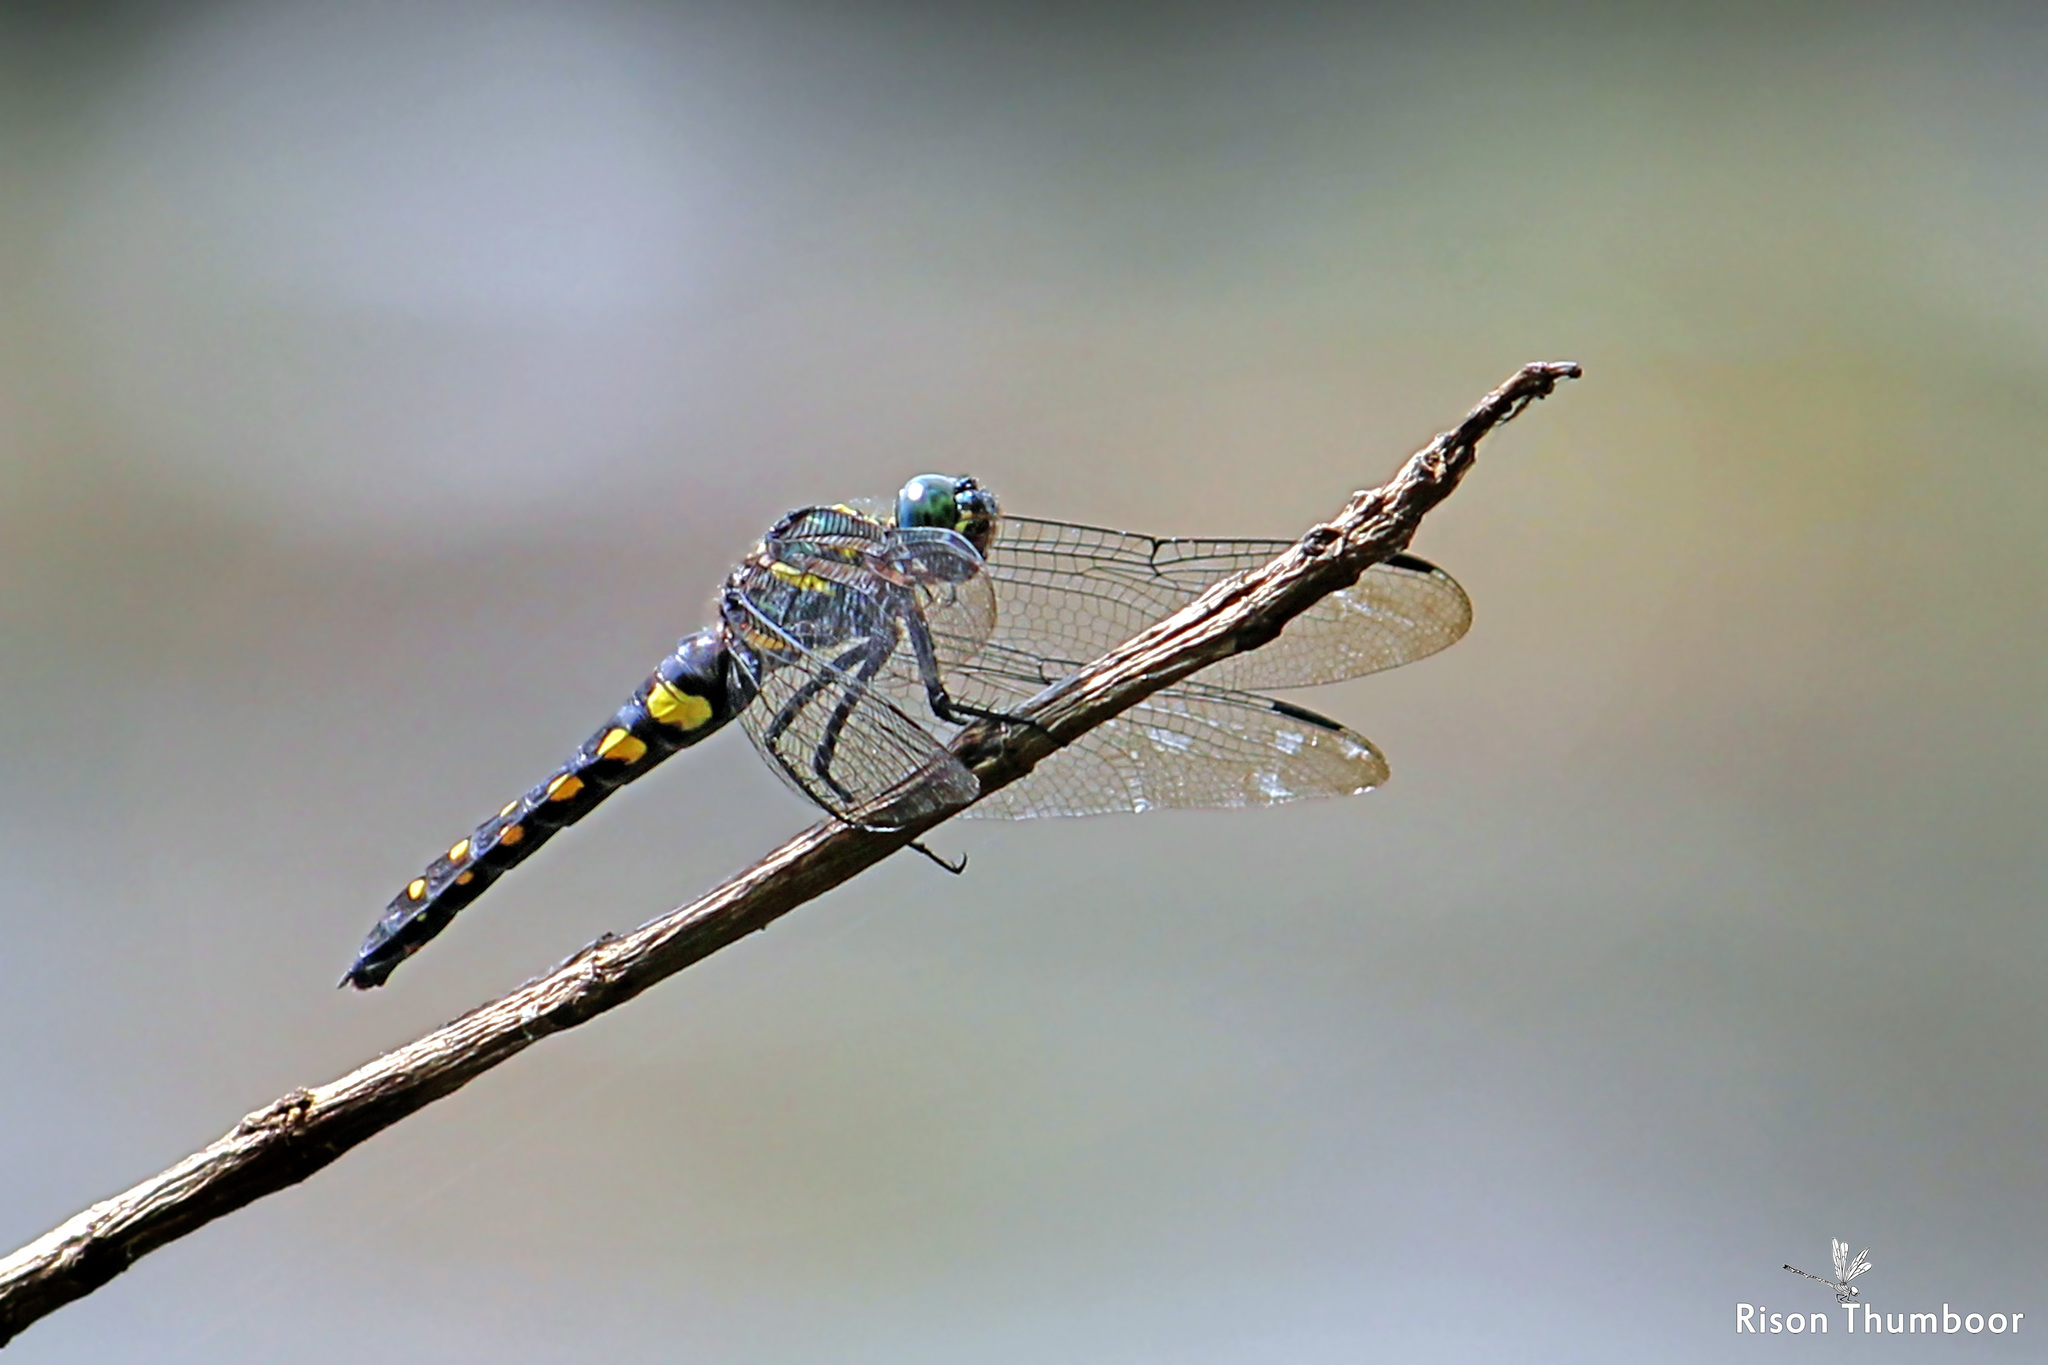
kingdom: Animalia
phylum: Arthropoda
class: Insecta
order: Odonata
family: Libellulidae
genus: Onychothemis
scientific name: Onychothemis testacea
